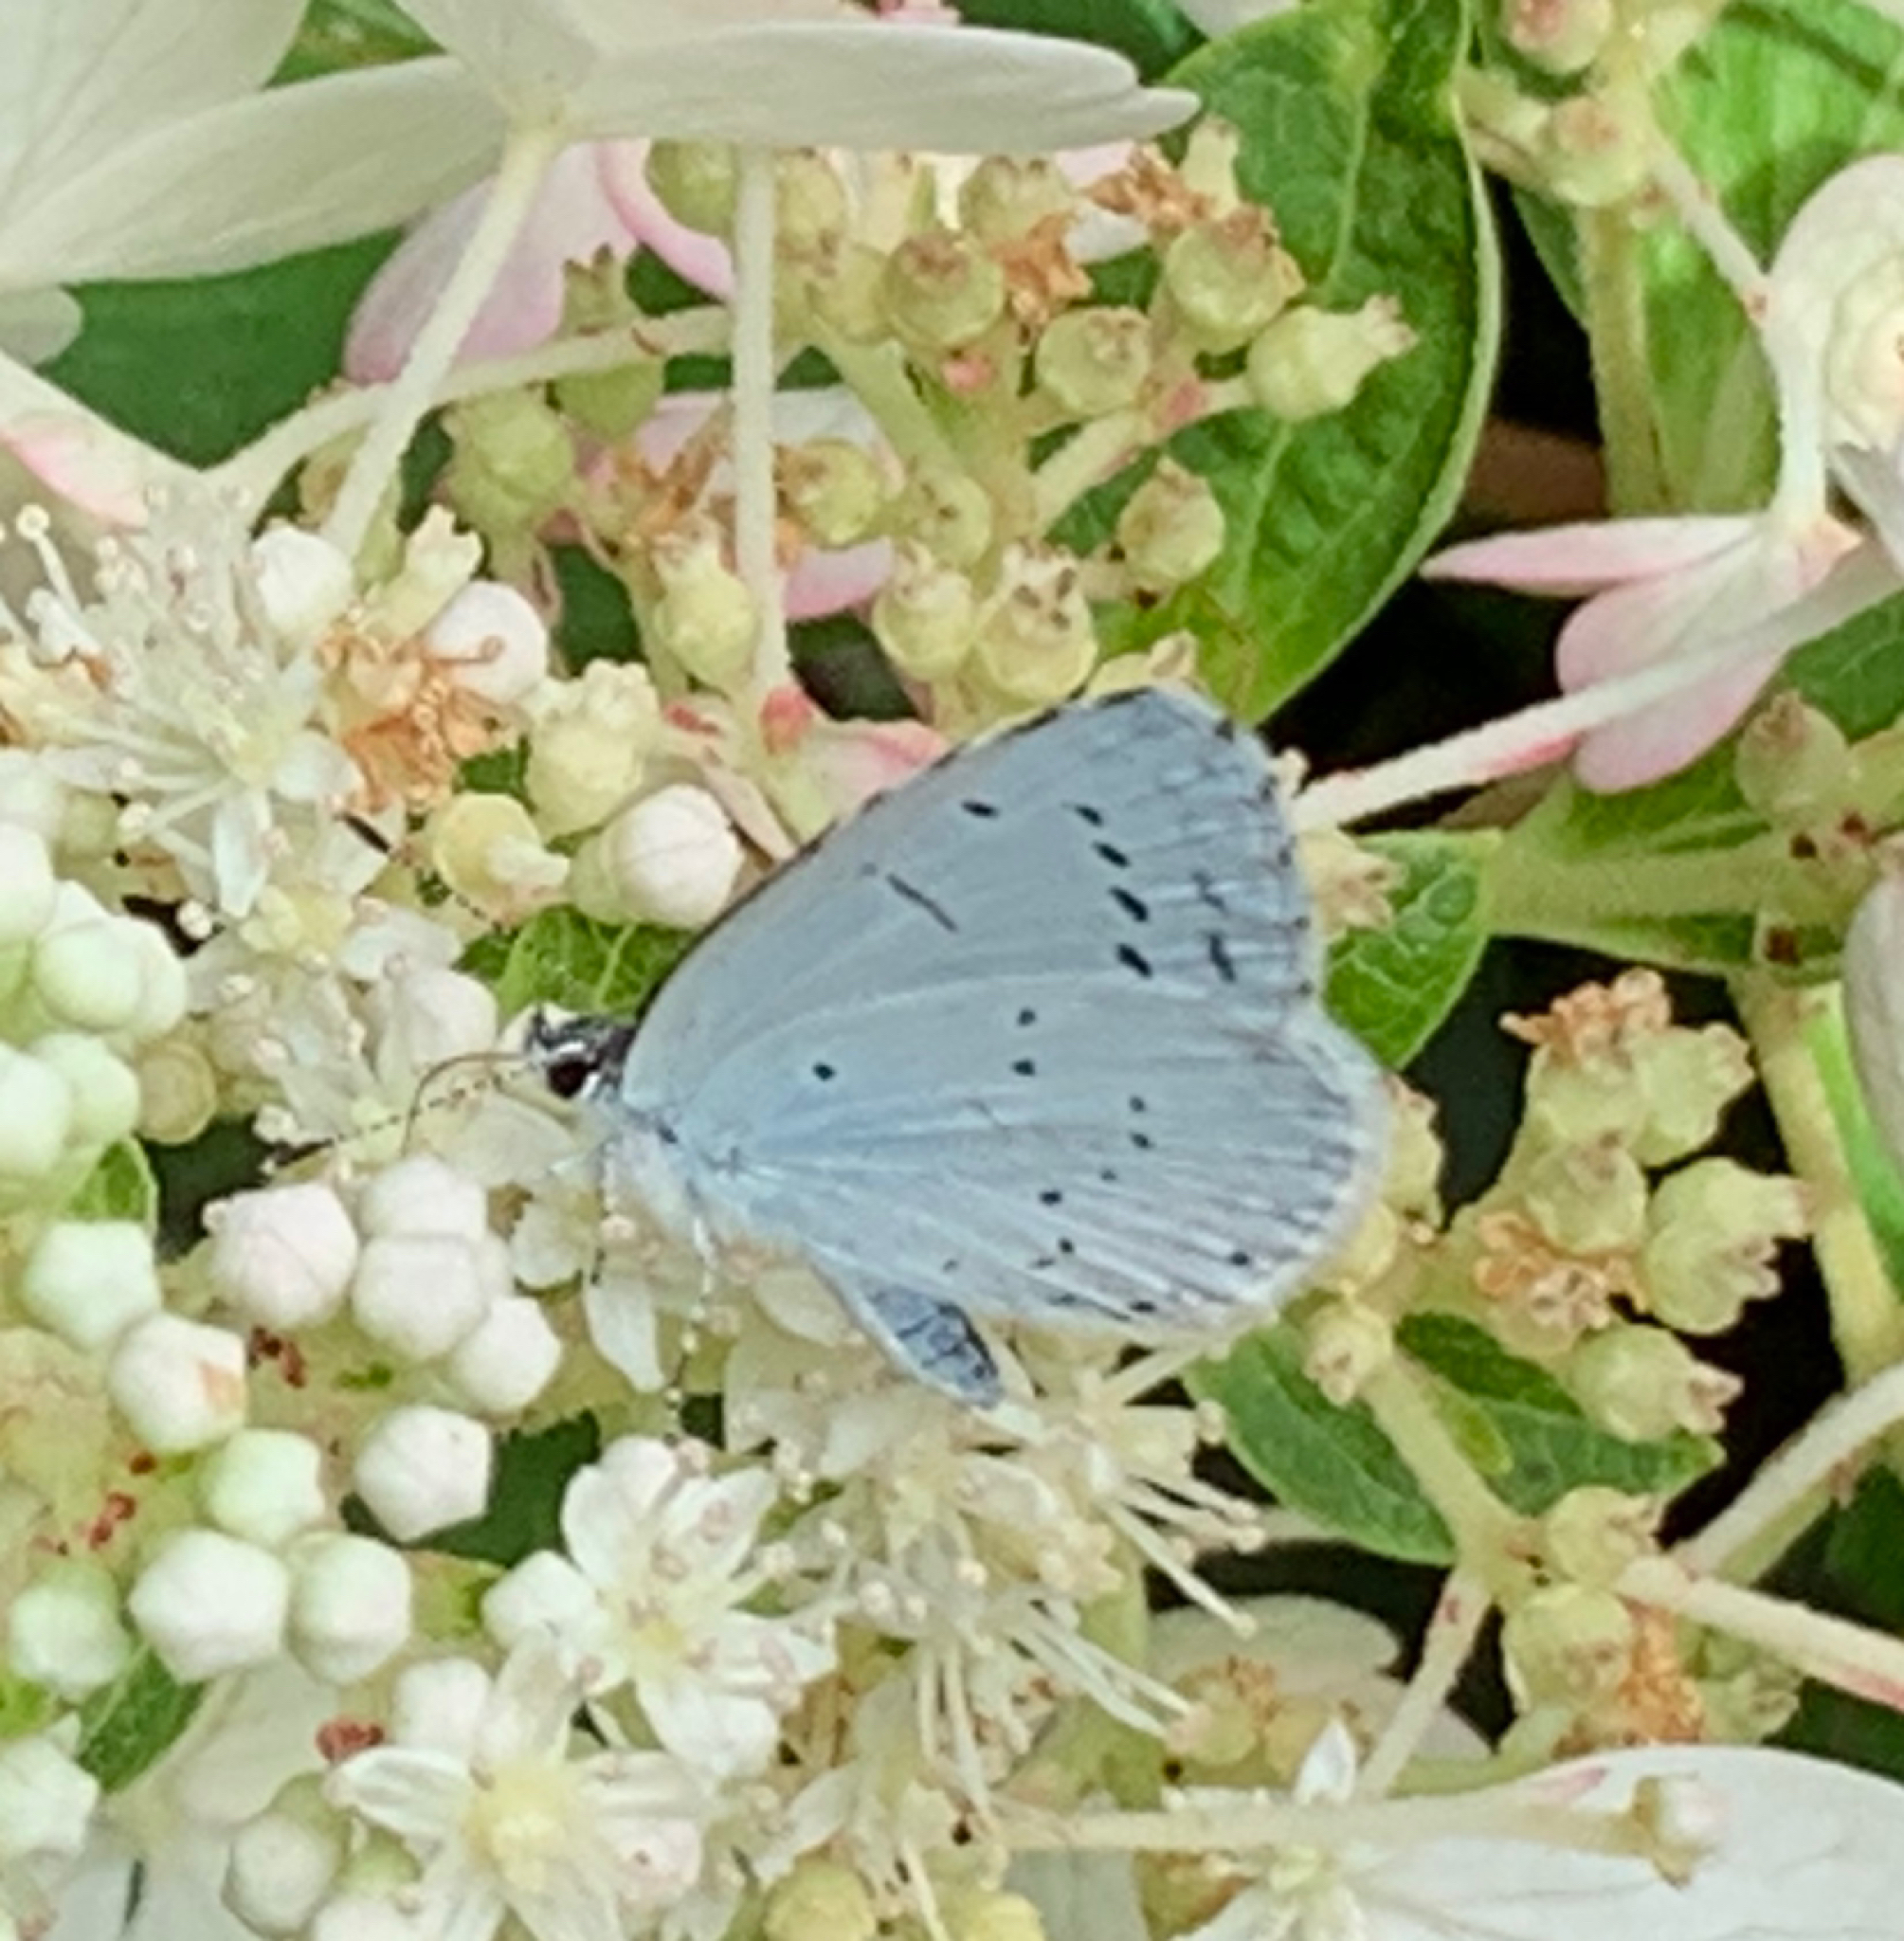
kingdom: Animalia
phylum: Arthropoda
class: Insecta
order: Lepidoptera
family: Lycaenidae
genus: Celastrina
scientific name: Celastrina argiolus
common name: Holly blue
